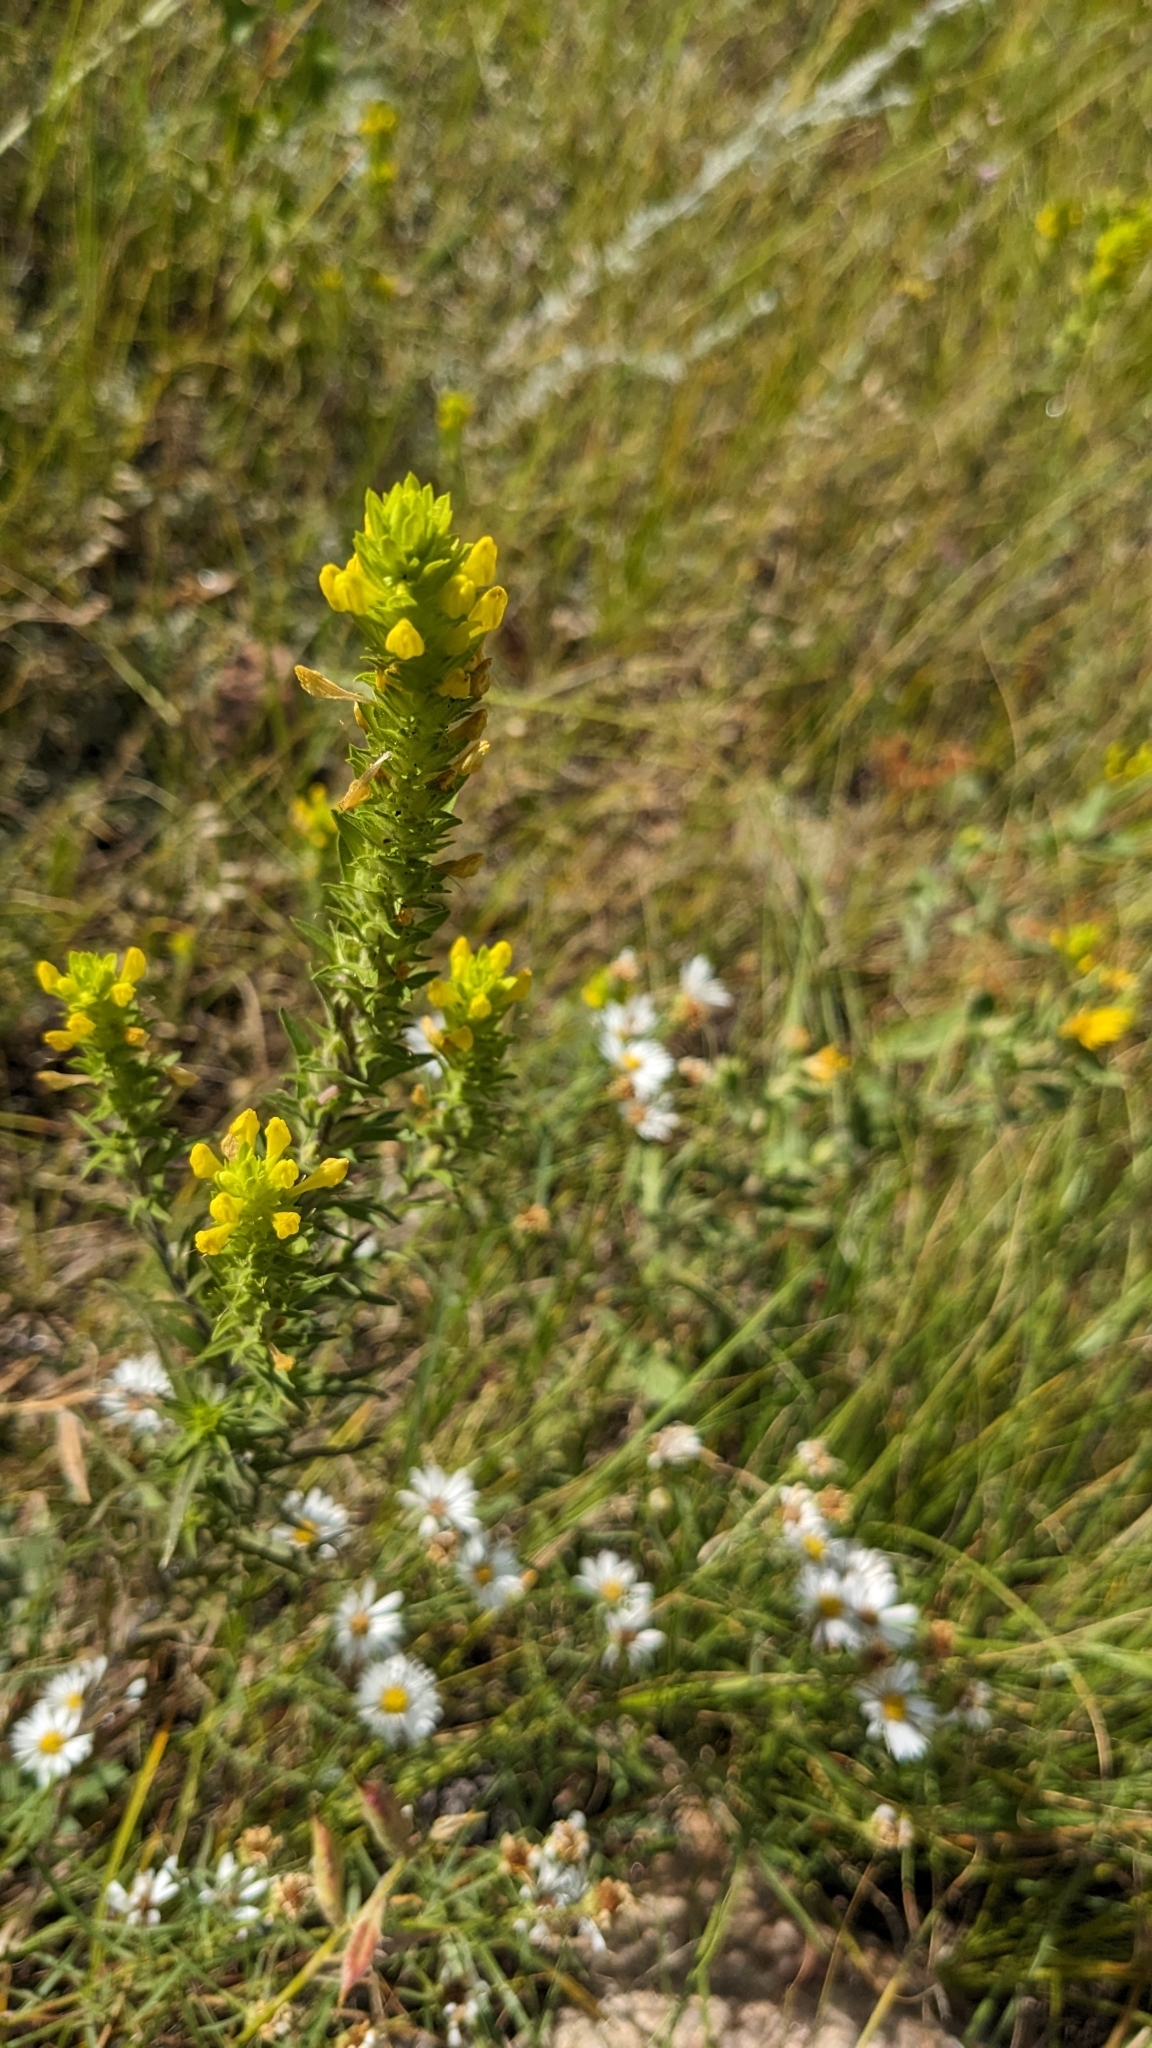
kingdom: Plantae
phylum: Tracheophyta
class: Magnoliopsida
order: Lamiales
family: Orobanchaceae
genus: Orthocarpus
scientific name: Orthocarpus luteus
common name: Golden-tongue owl's-clover
